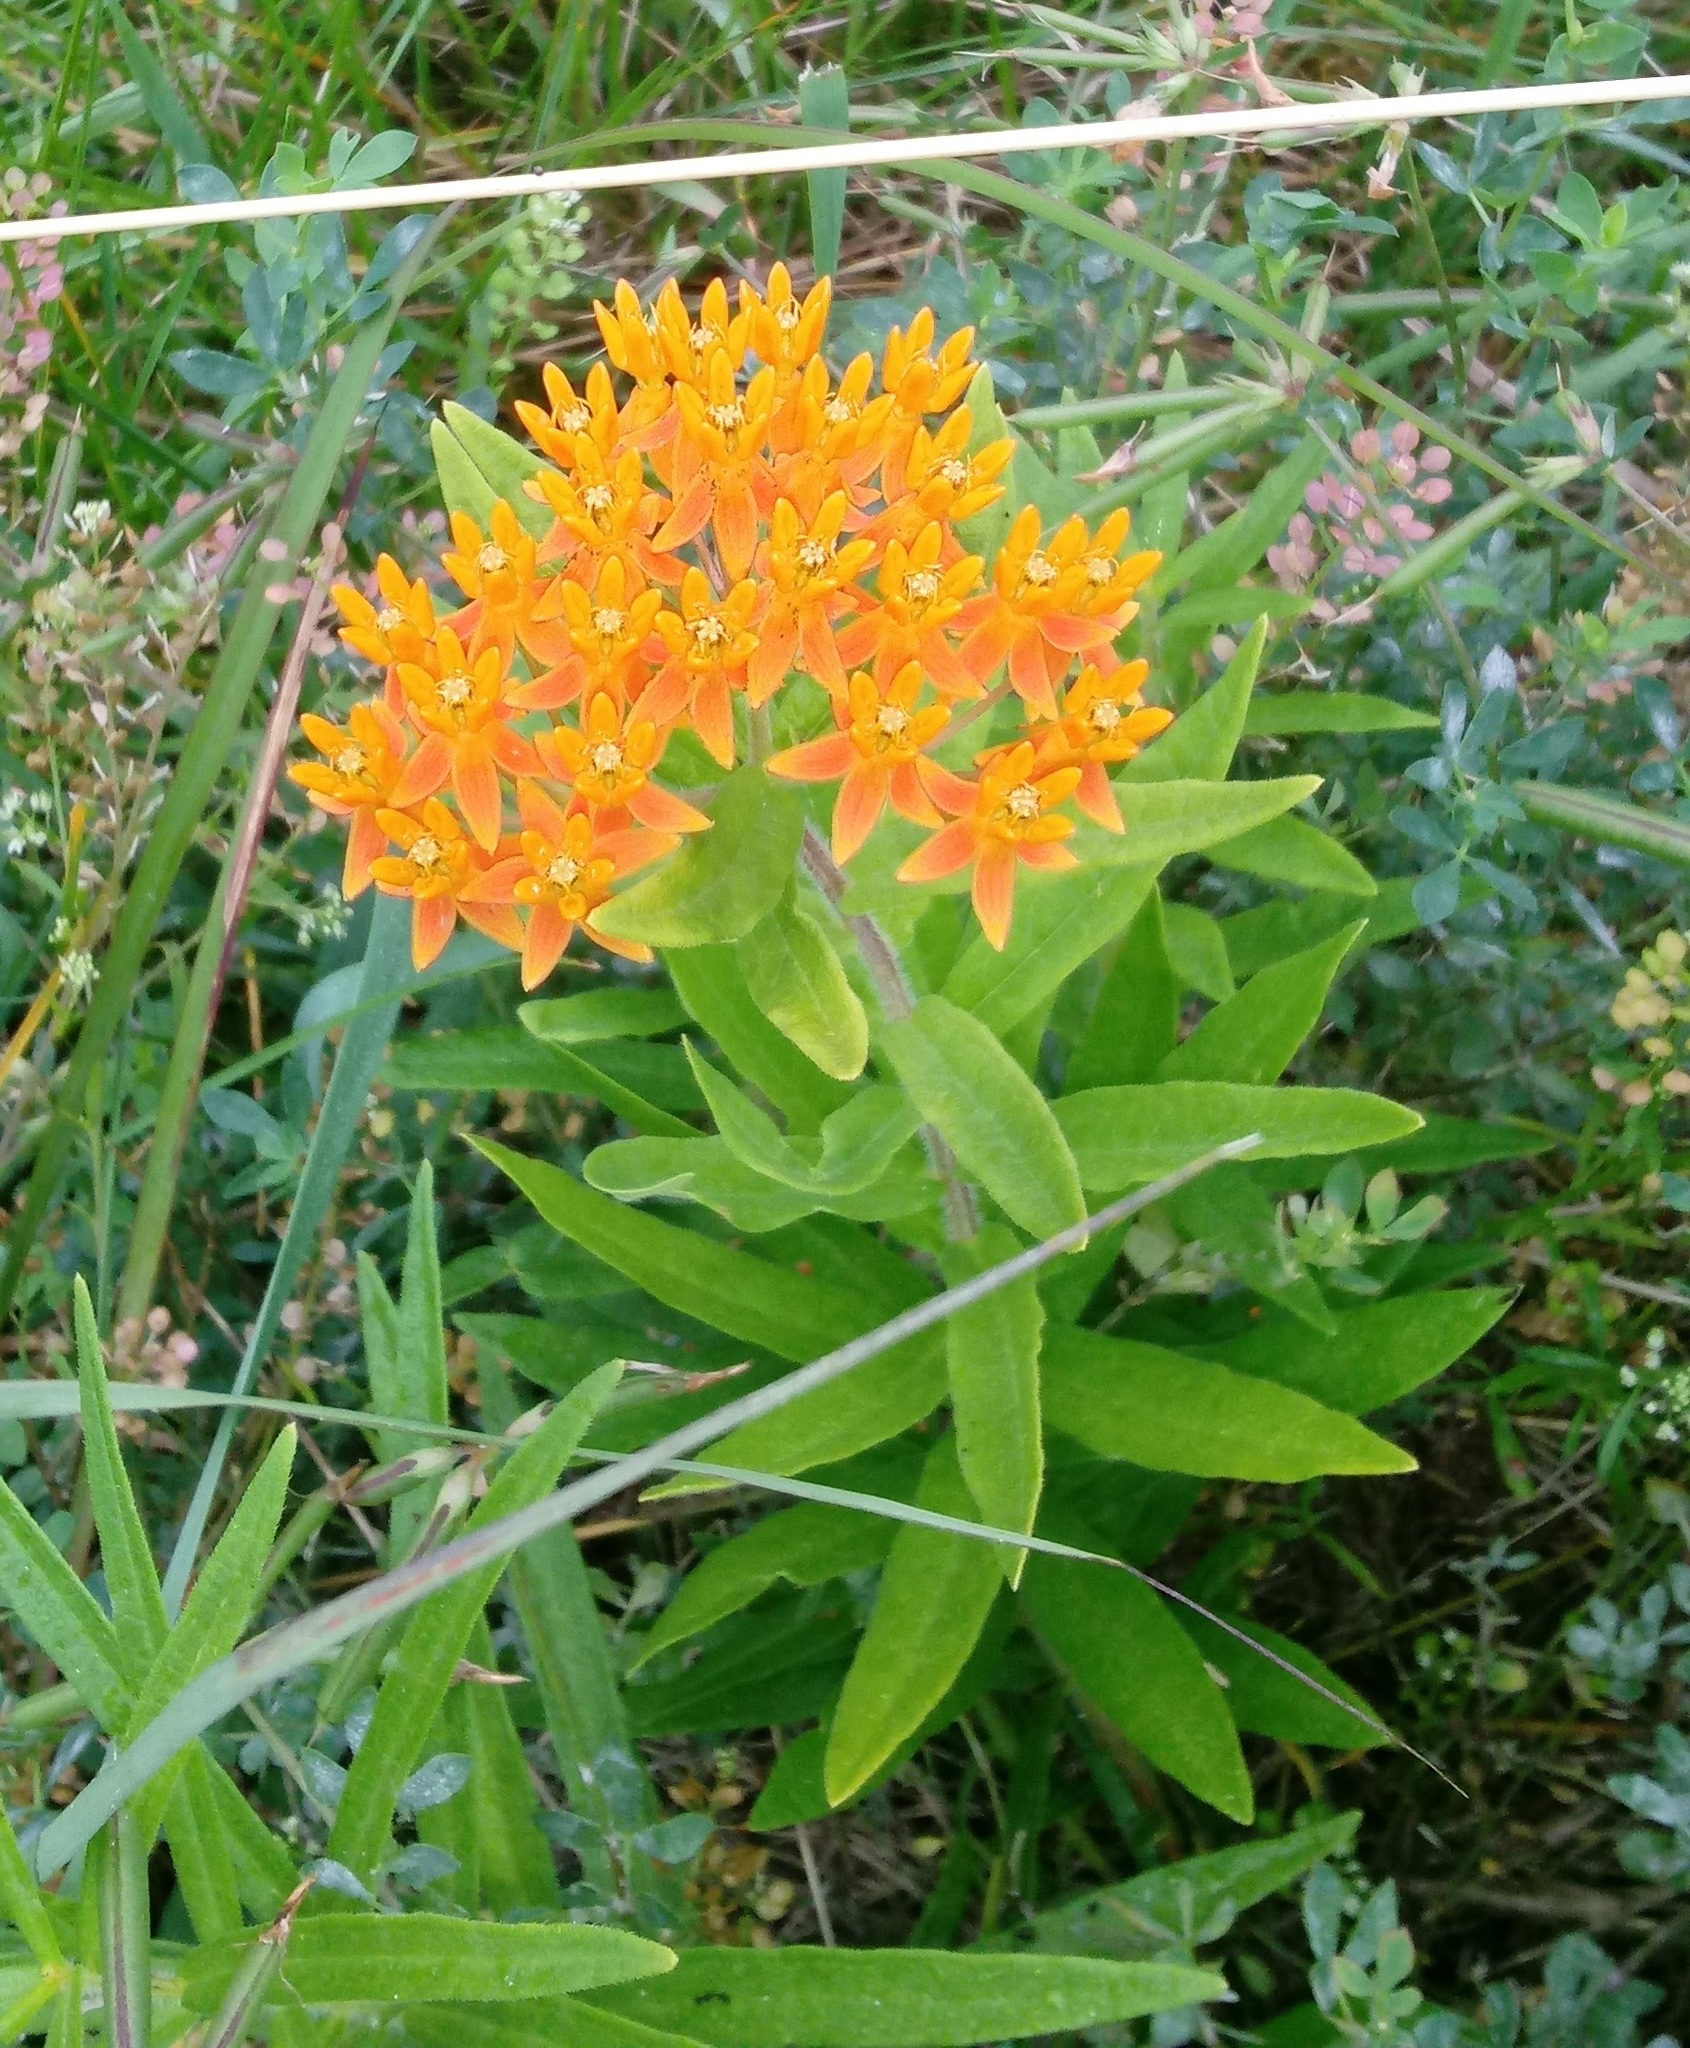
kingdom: Plantae
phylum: Tracheophyta
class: Magnoliopsida
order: Gentianales
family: Apocynaceae
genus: Asclepias
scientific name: Asclepias tuberosa
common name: Butterfly milkweed
